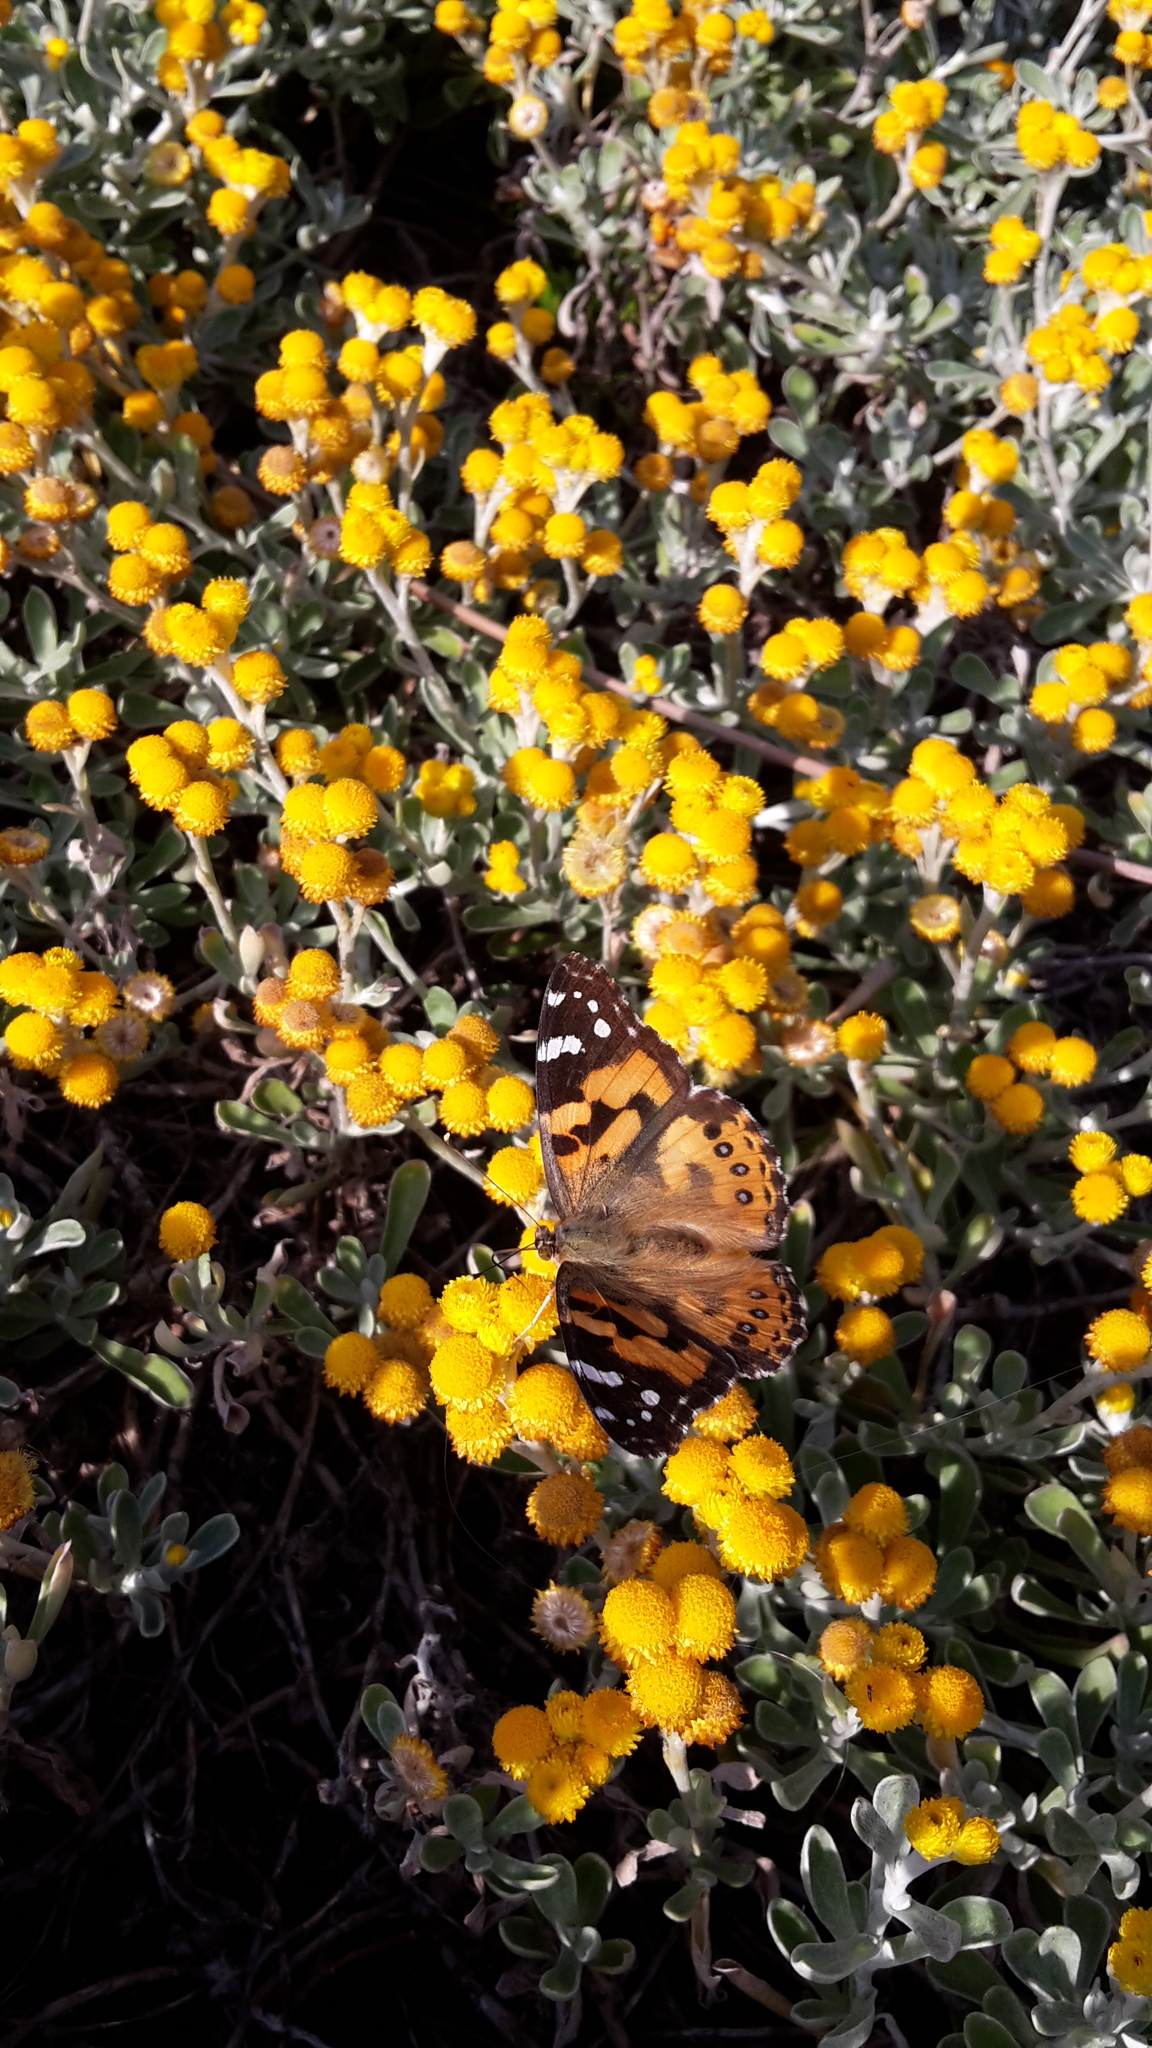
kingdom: Animalia
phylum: Arthropoda
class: Insecta
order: Lepidoptera
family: Nymphalidae
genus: Vanessa
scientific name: Vanessa kershawi
